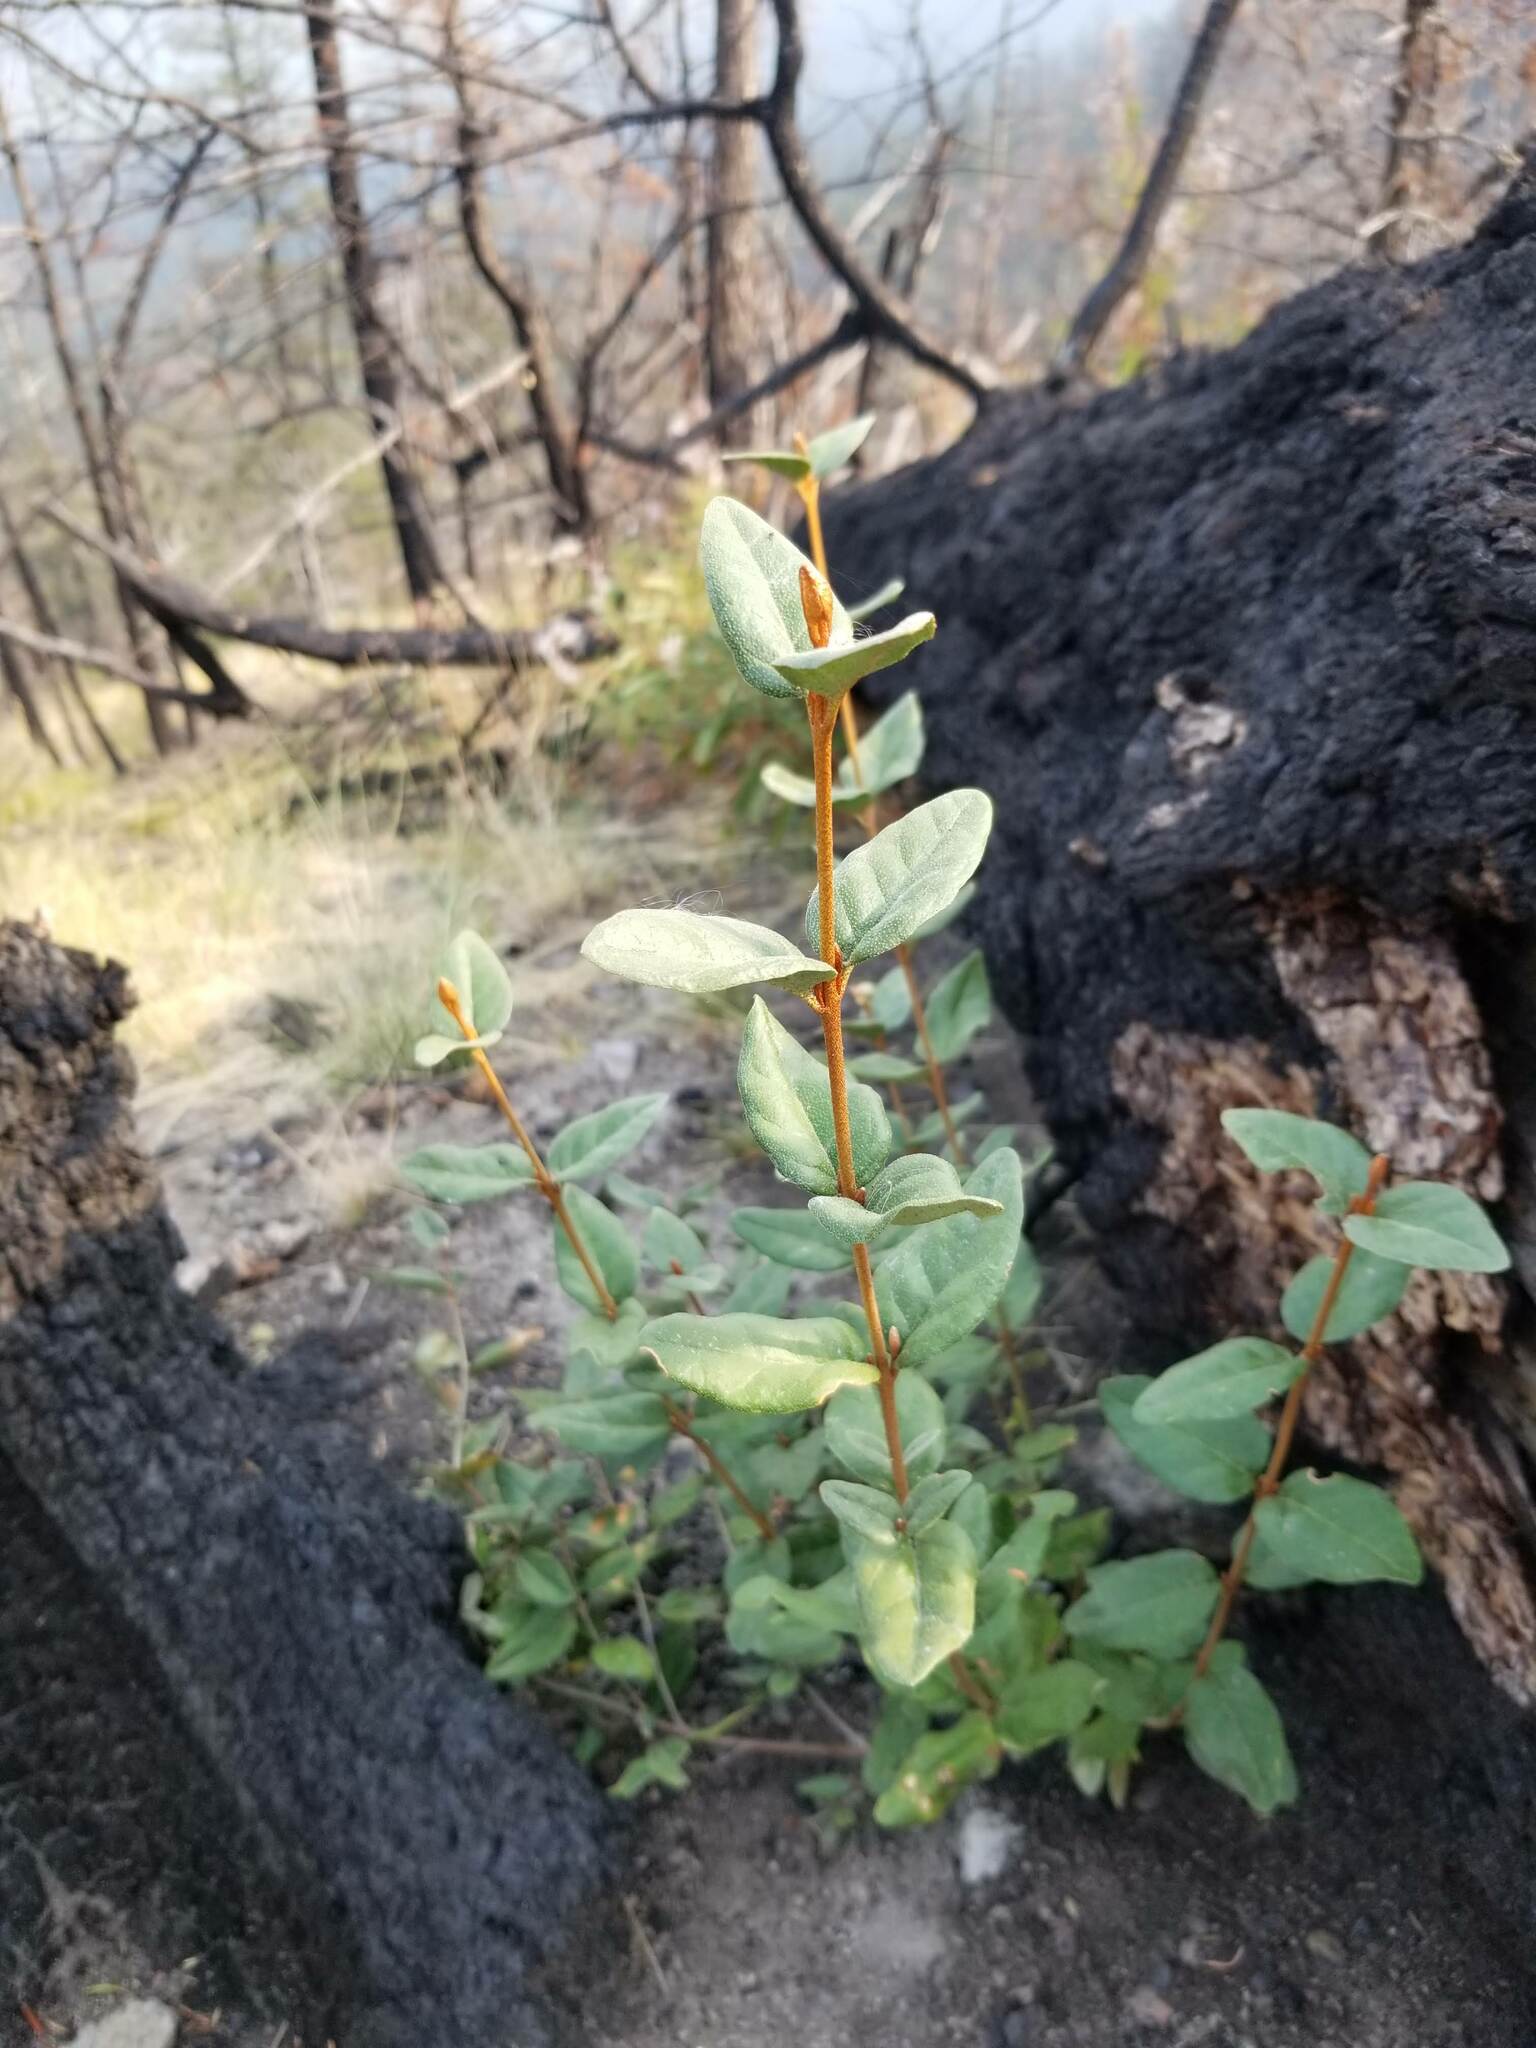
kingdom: Plantae
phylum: Tracheophyta
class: Magnoliopsida
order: Rosales
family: Elaeagnaceae
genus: Shepherdia
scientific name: Shepherdia canadensis
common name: Soapberry
